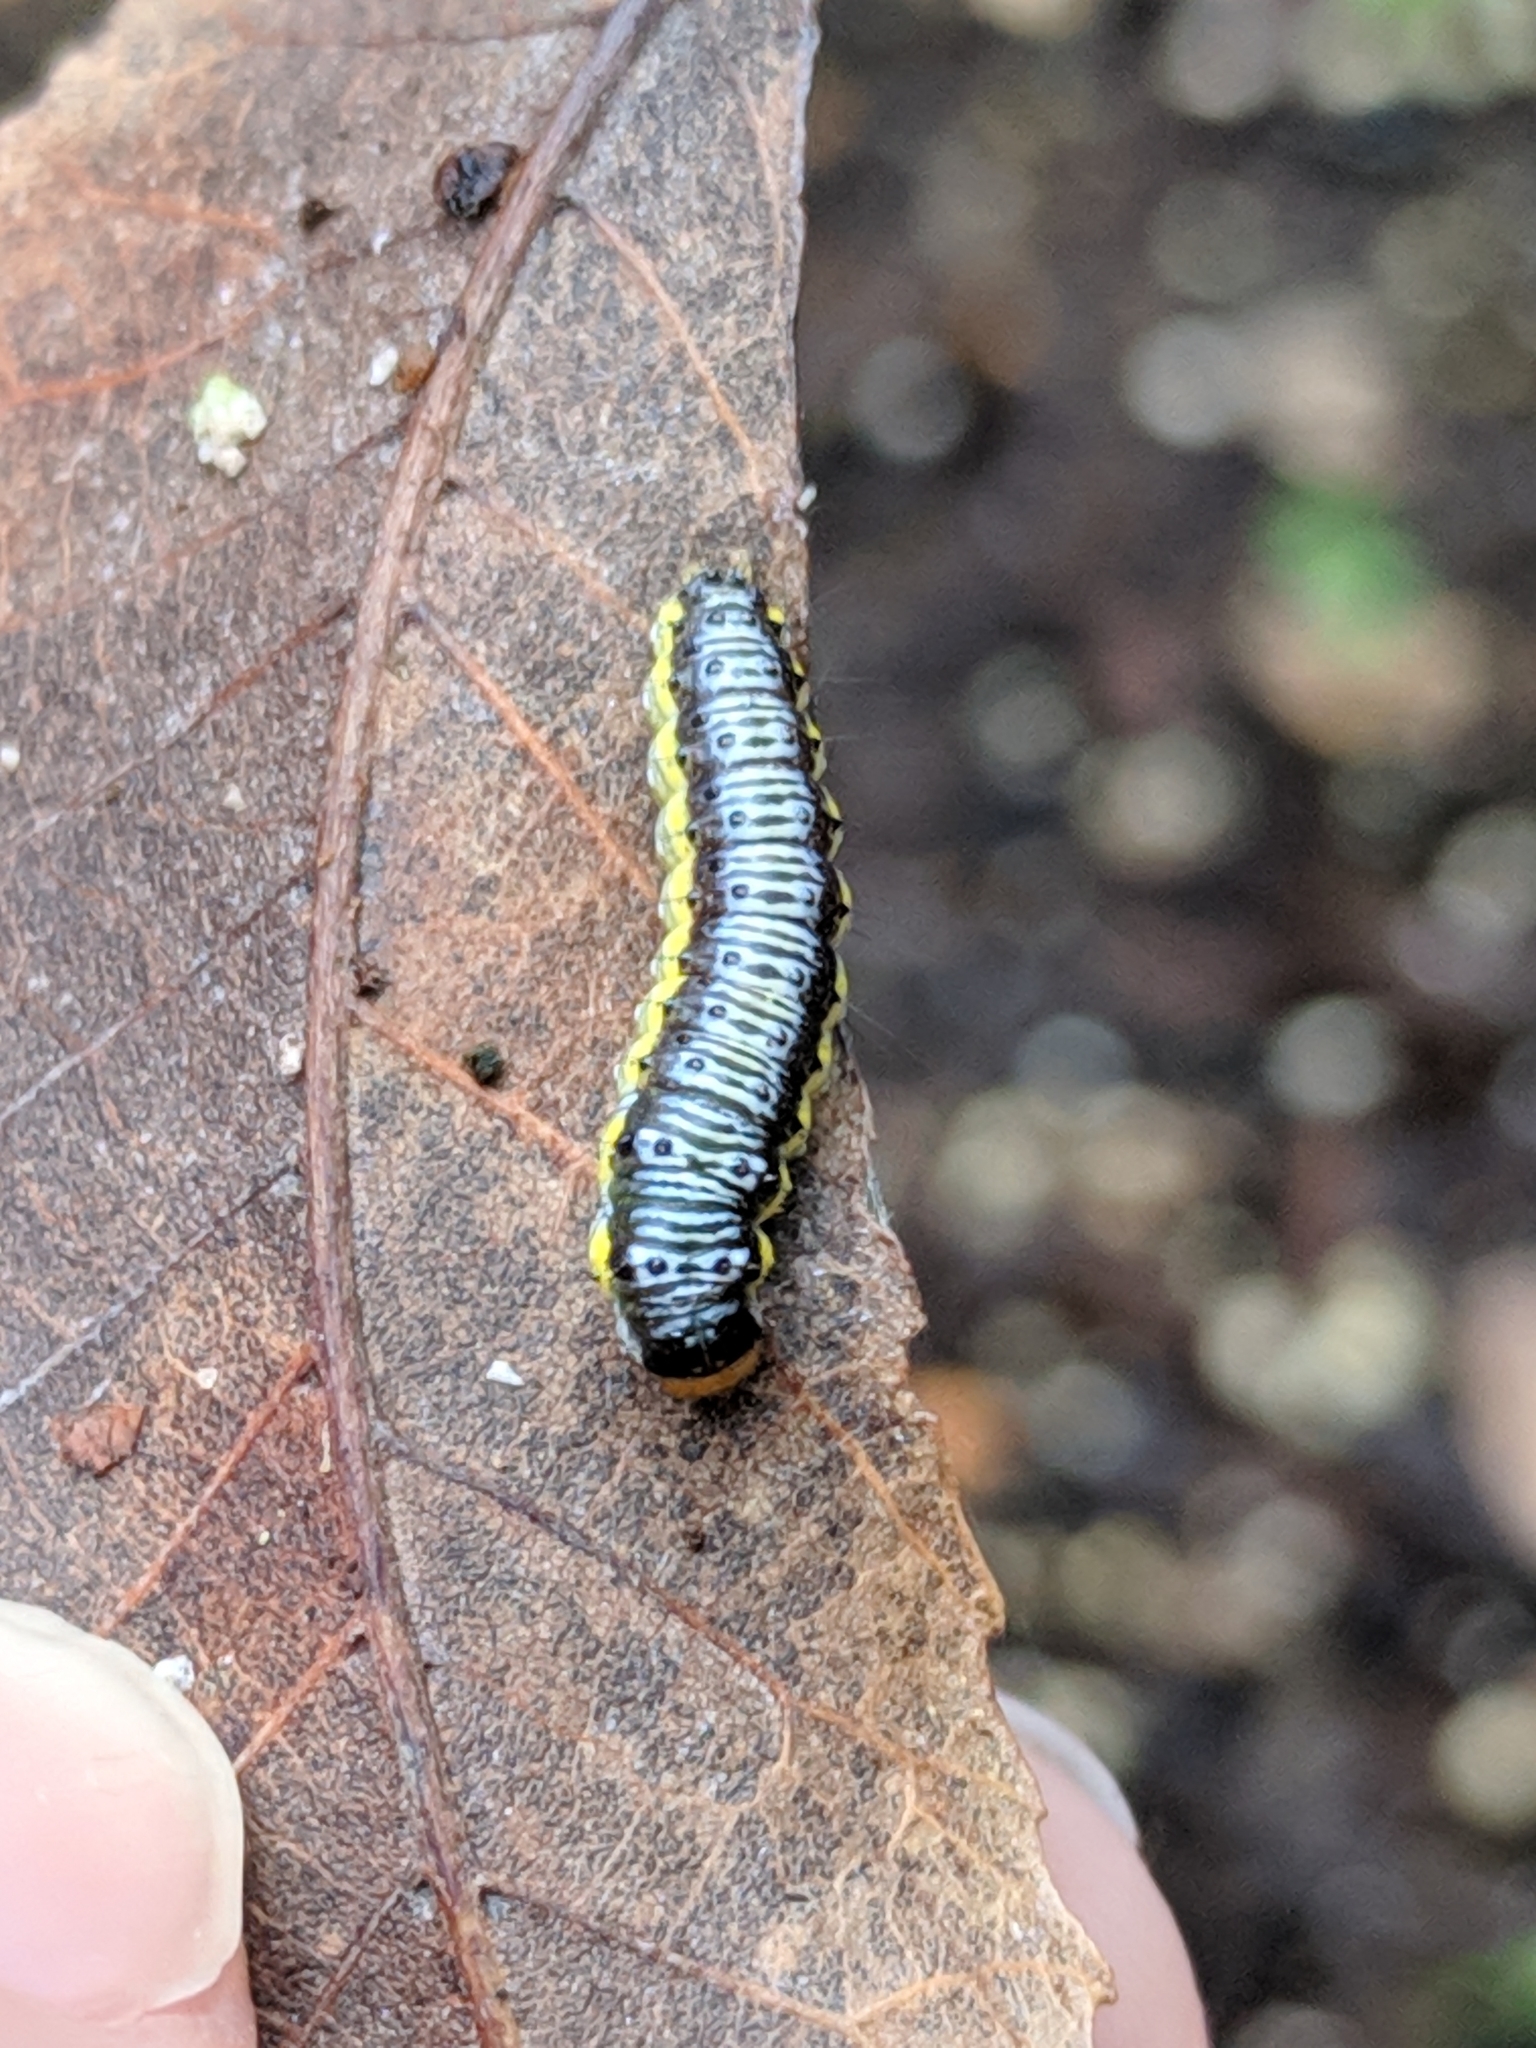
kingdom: Animalia
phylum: Arthropoda
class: Insecta
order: Lepidoptera
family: Crambidae
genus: Evergestis
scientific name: Evergestis rimosalis
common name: Cross-striped cabbageworm moth
